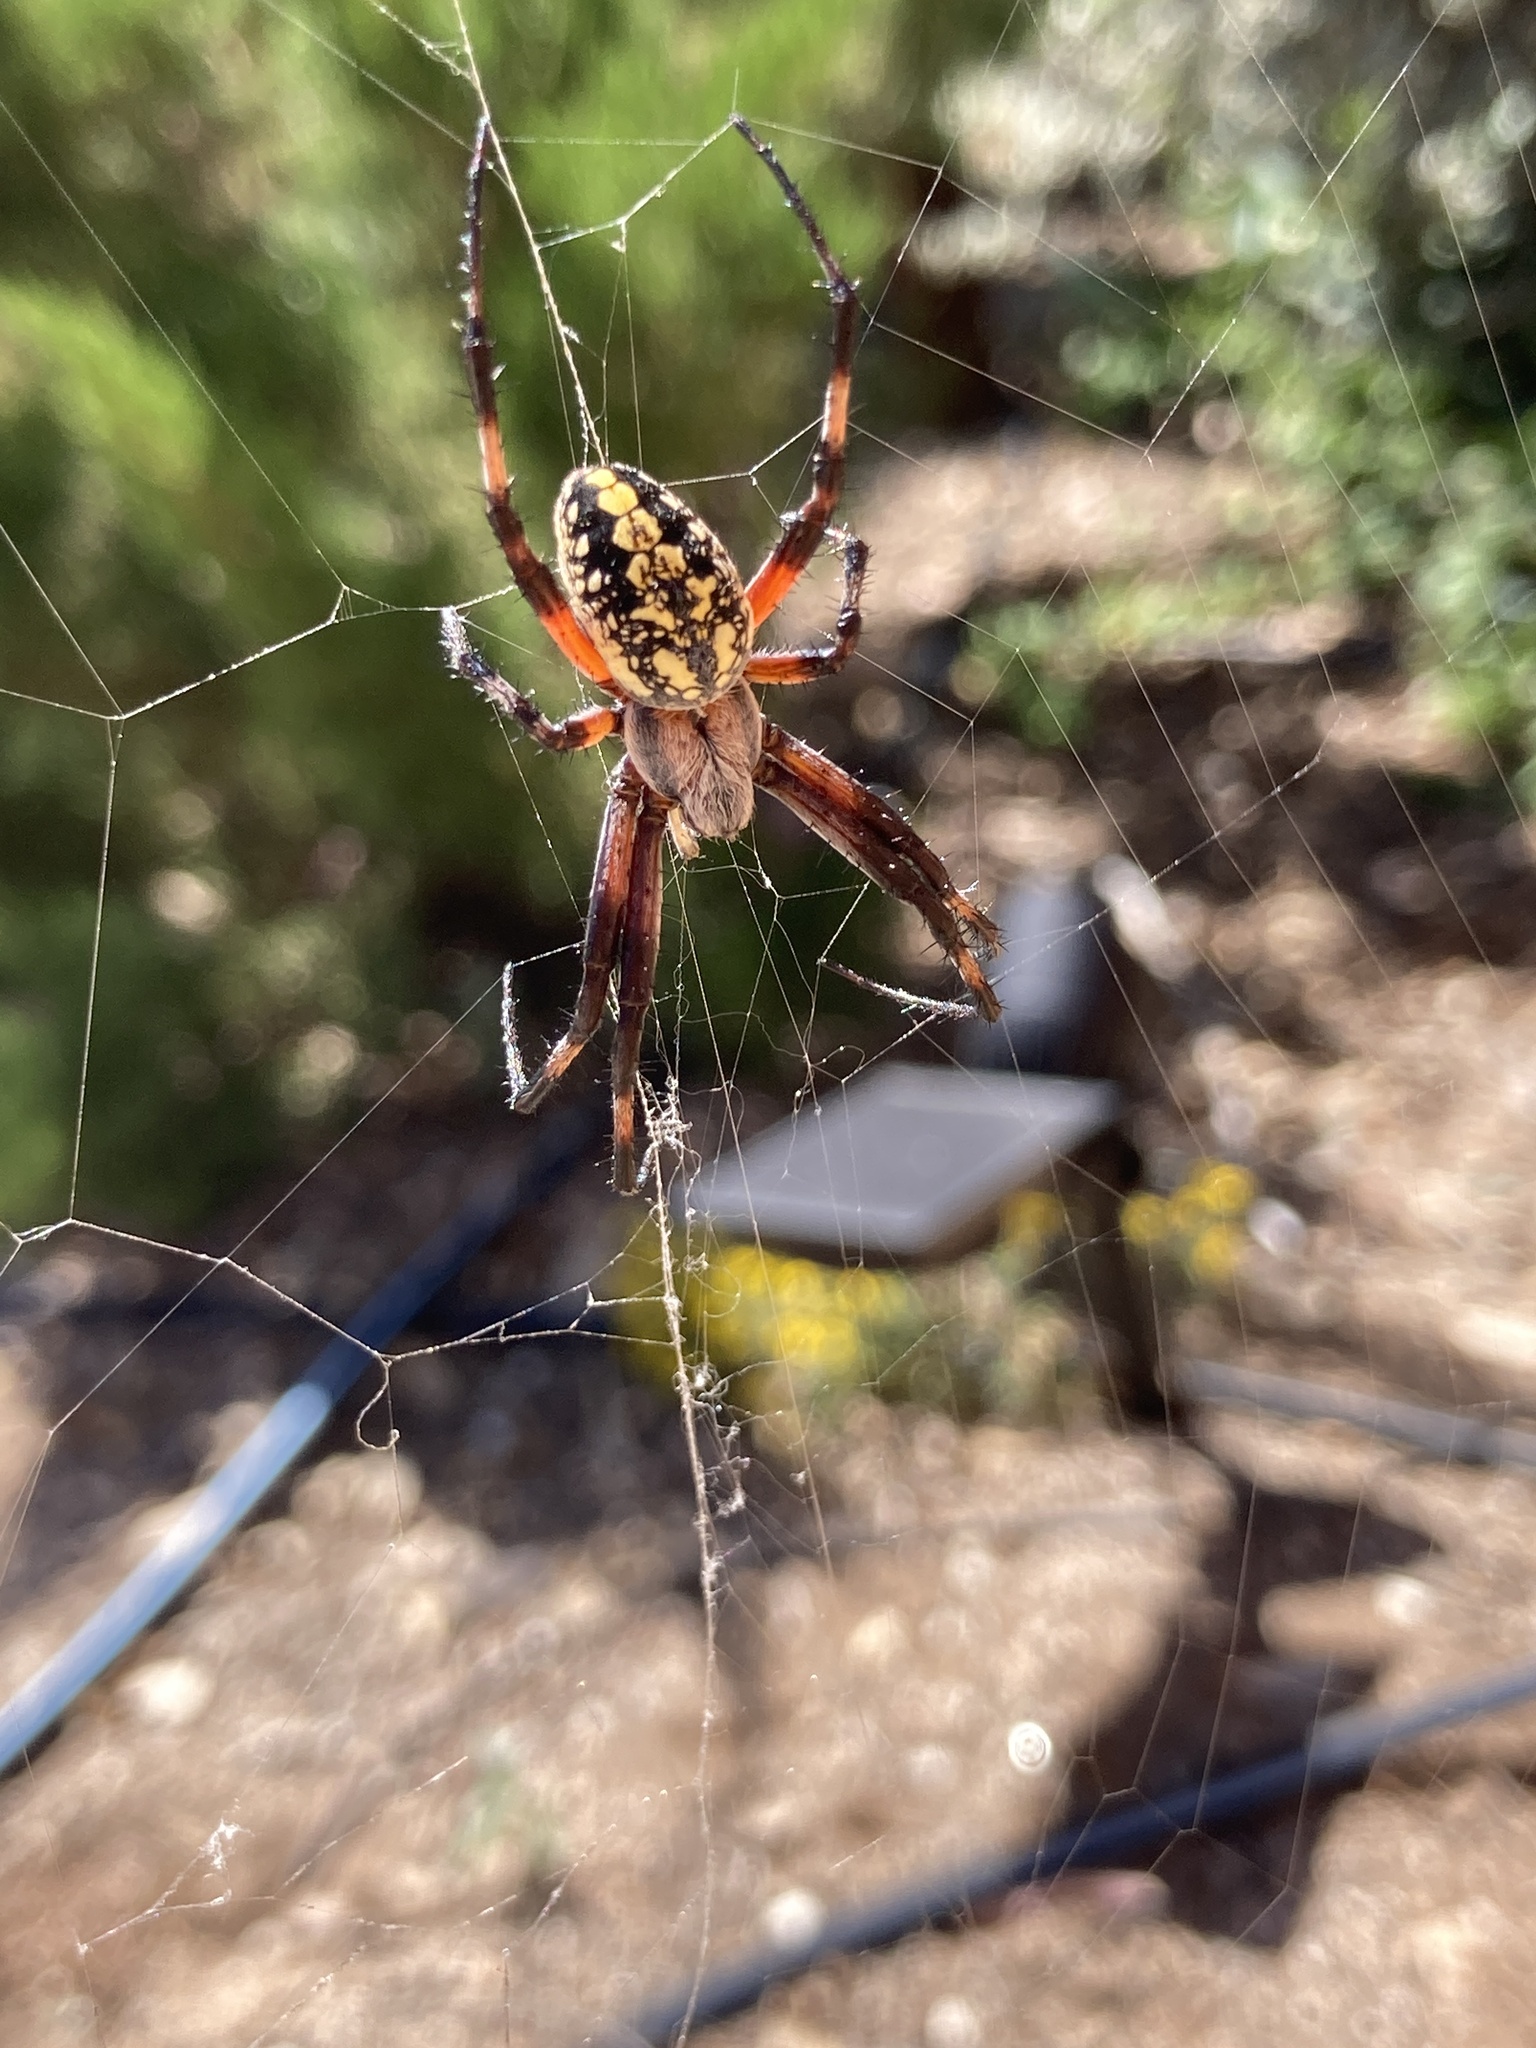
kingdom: Animalia
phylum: Arthropoda
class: Arachnida
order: Araneae
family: Araneidae
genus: Neoscona
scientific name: Neoscona oaxacensis
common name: Orb weavers
